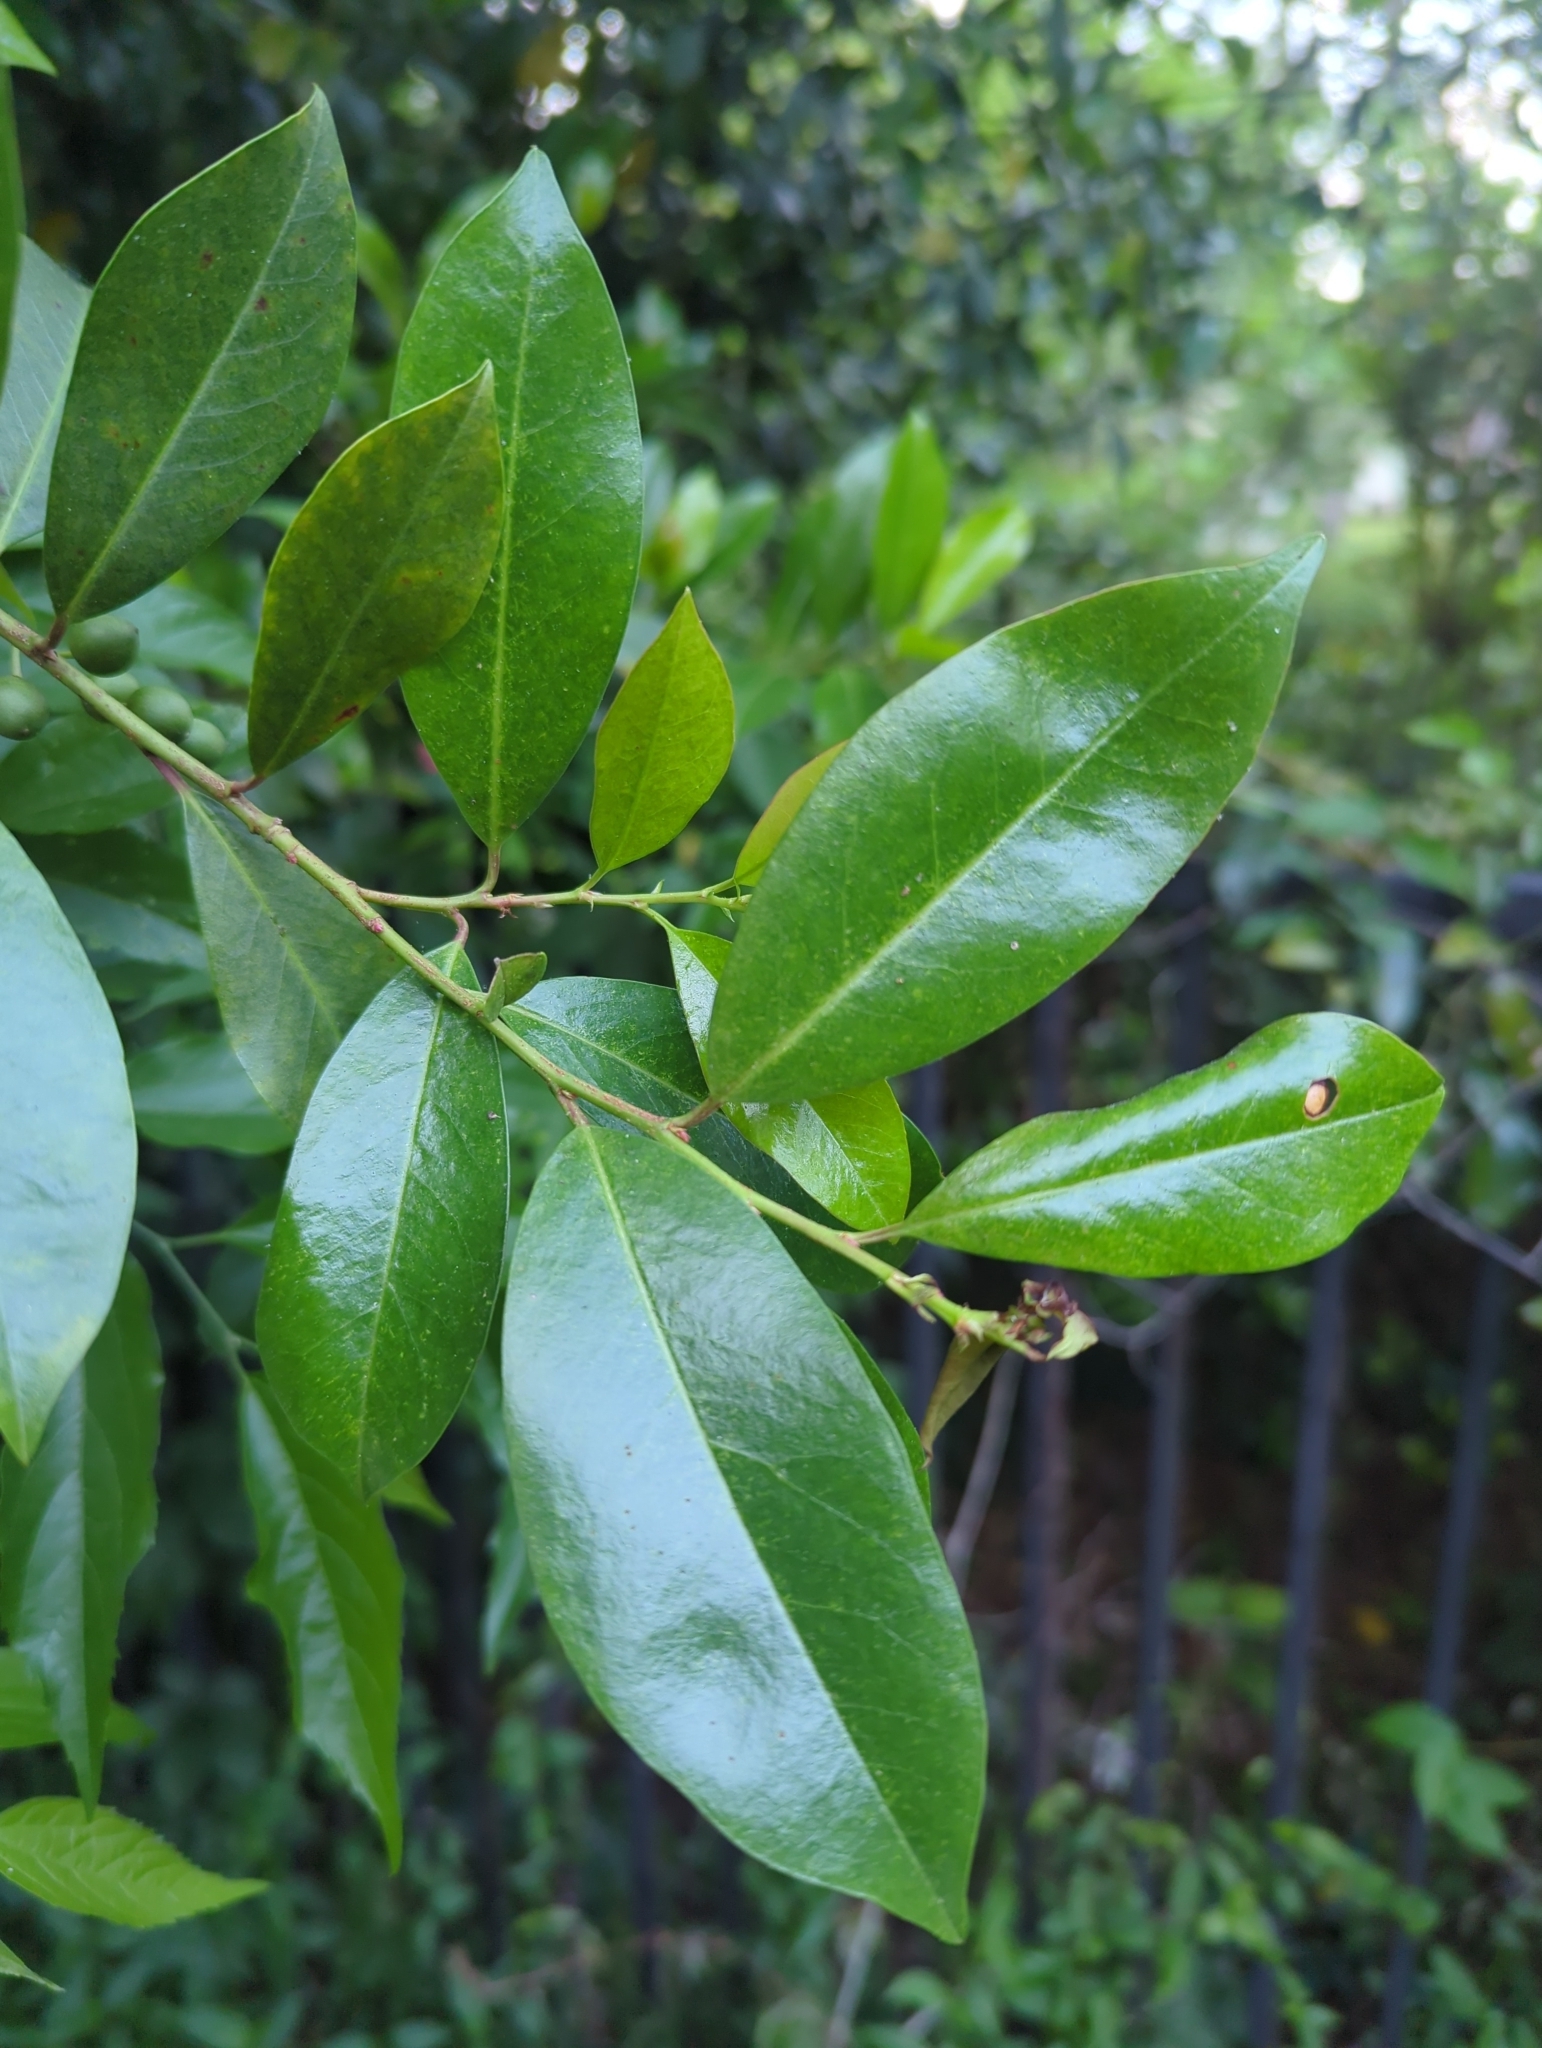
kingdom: Plantae
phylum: Tracheophyta
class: Magnoliopsida
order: Rosales
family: Rosaceae
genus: Prunus
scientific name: Prunus caroliniana
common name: Carolina laurel cherry
